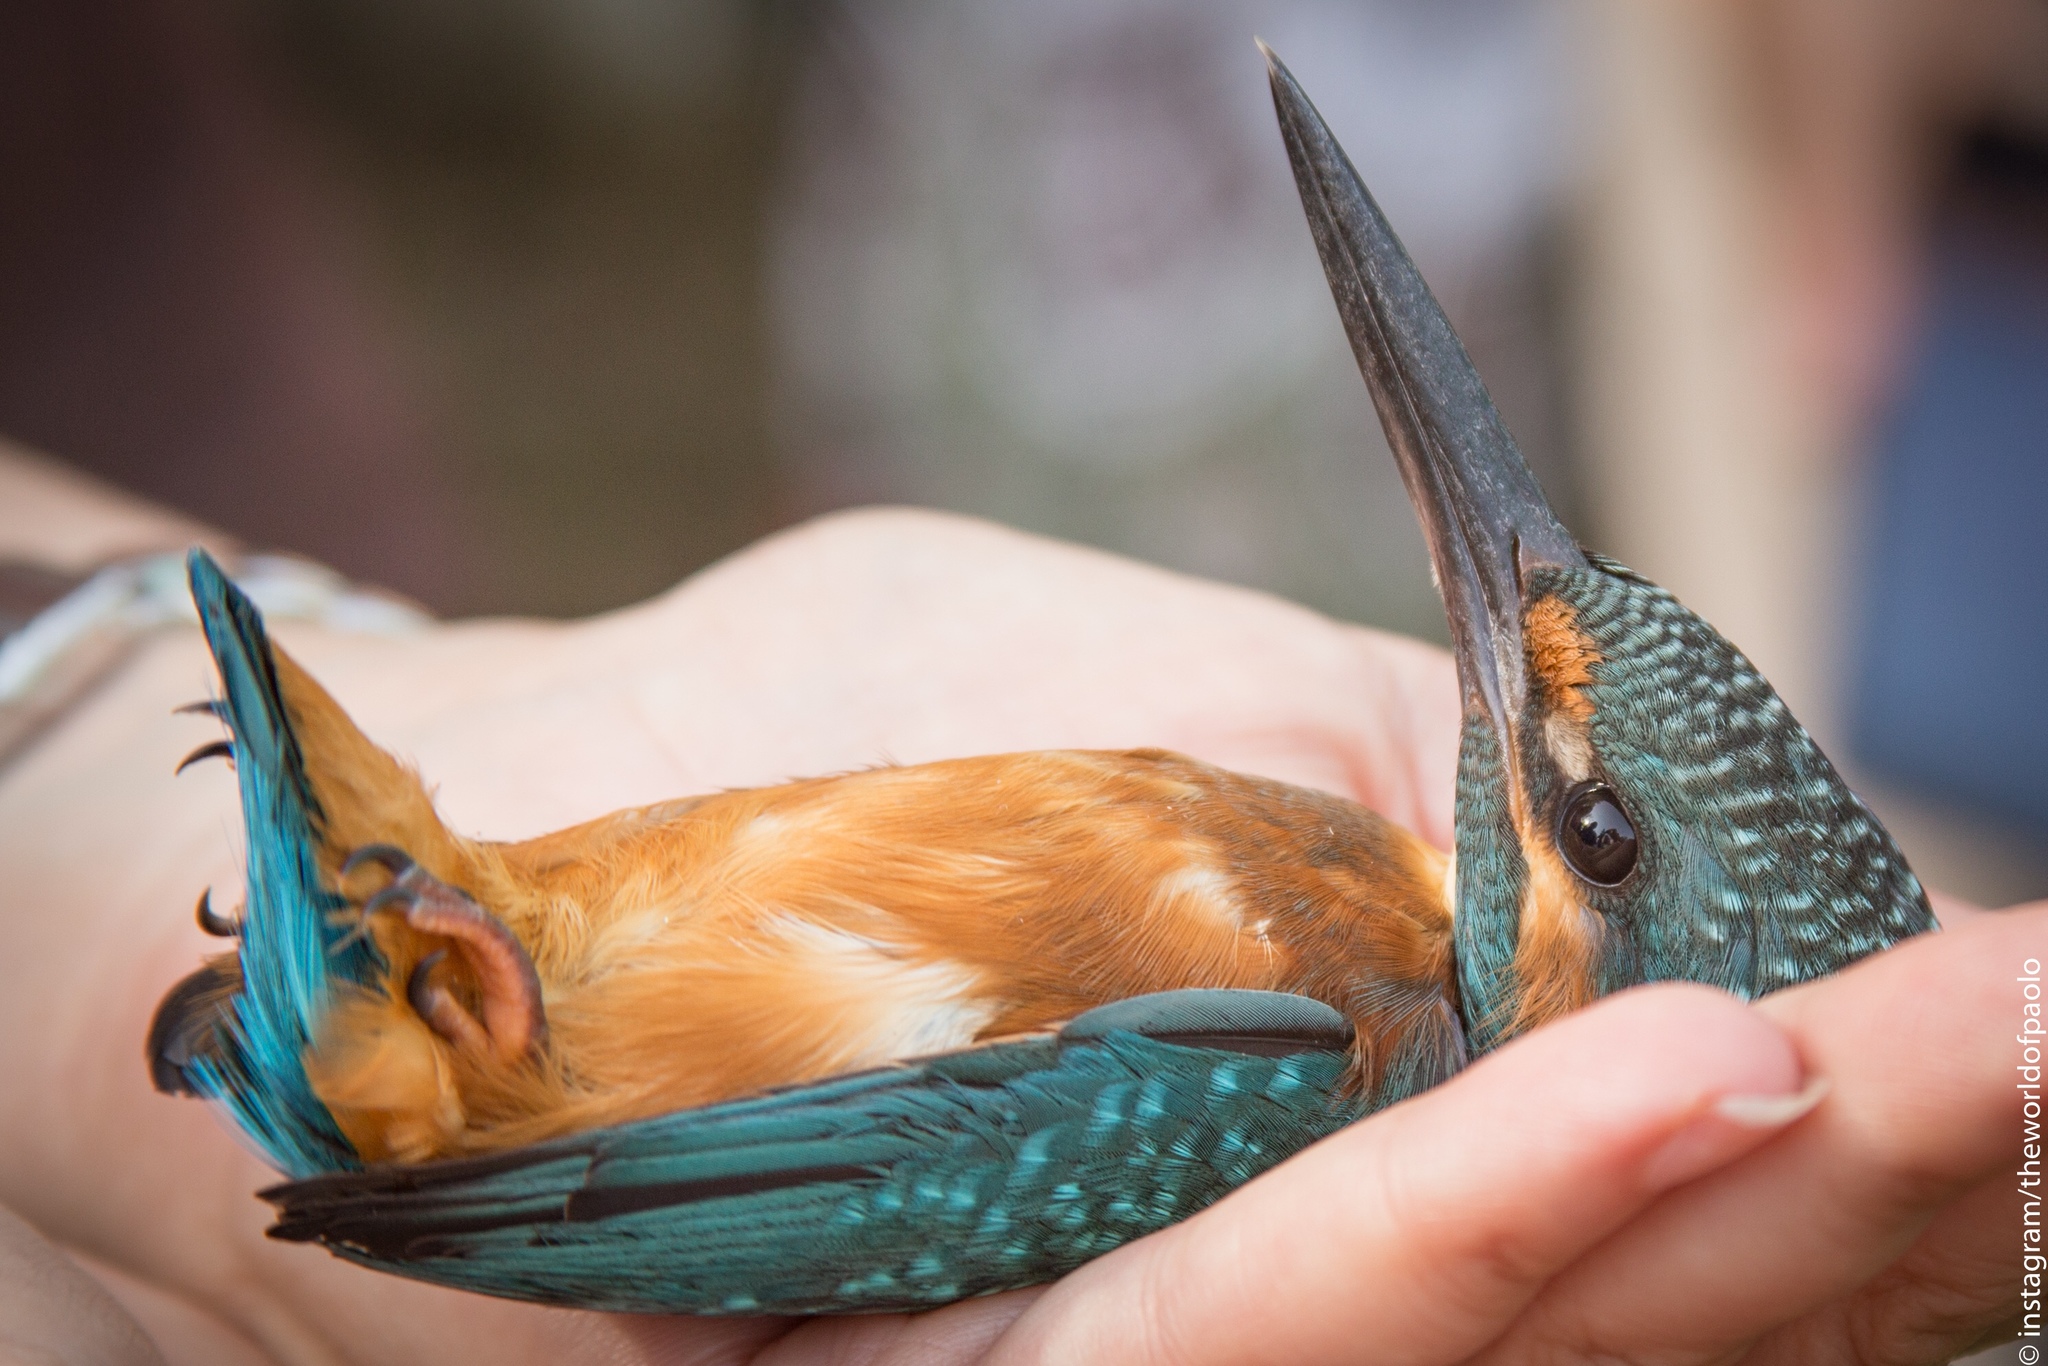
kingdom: Animalia
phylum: Chordata
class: Aves
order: Coraciiformes
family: Alcedinidae
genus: Alcedo
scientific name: Alcedo atthis
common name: Common kingfisher
